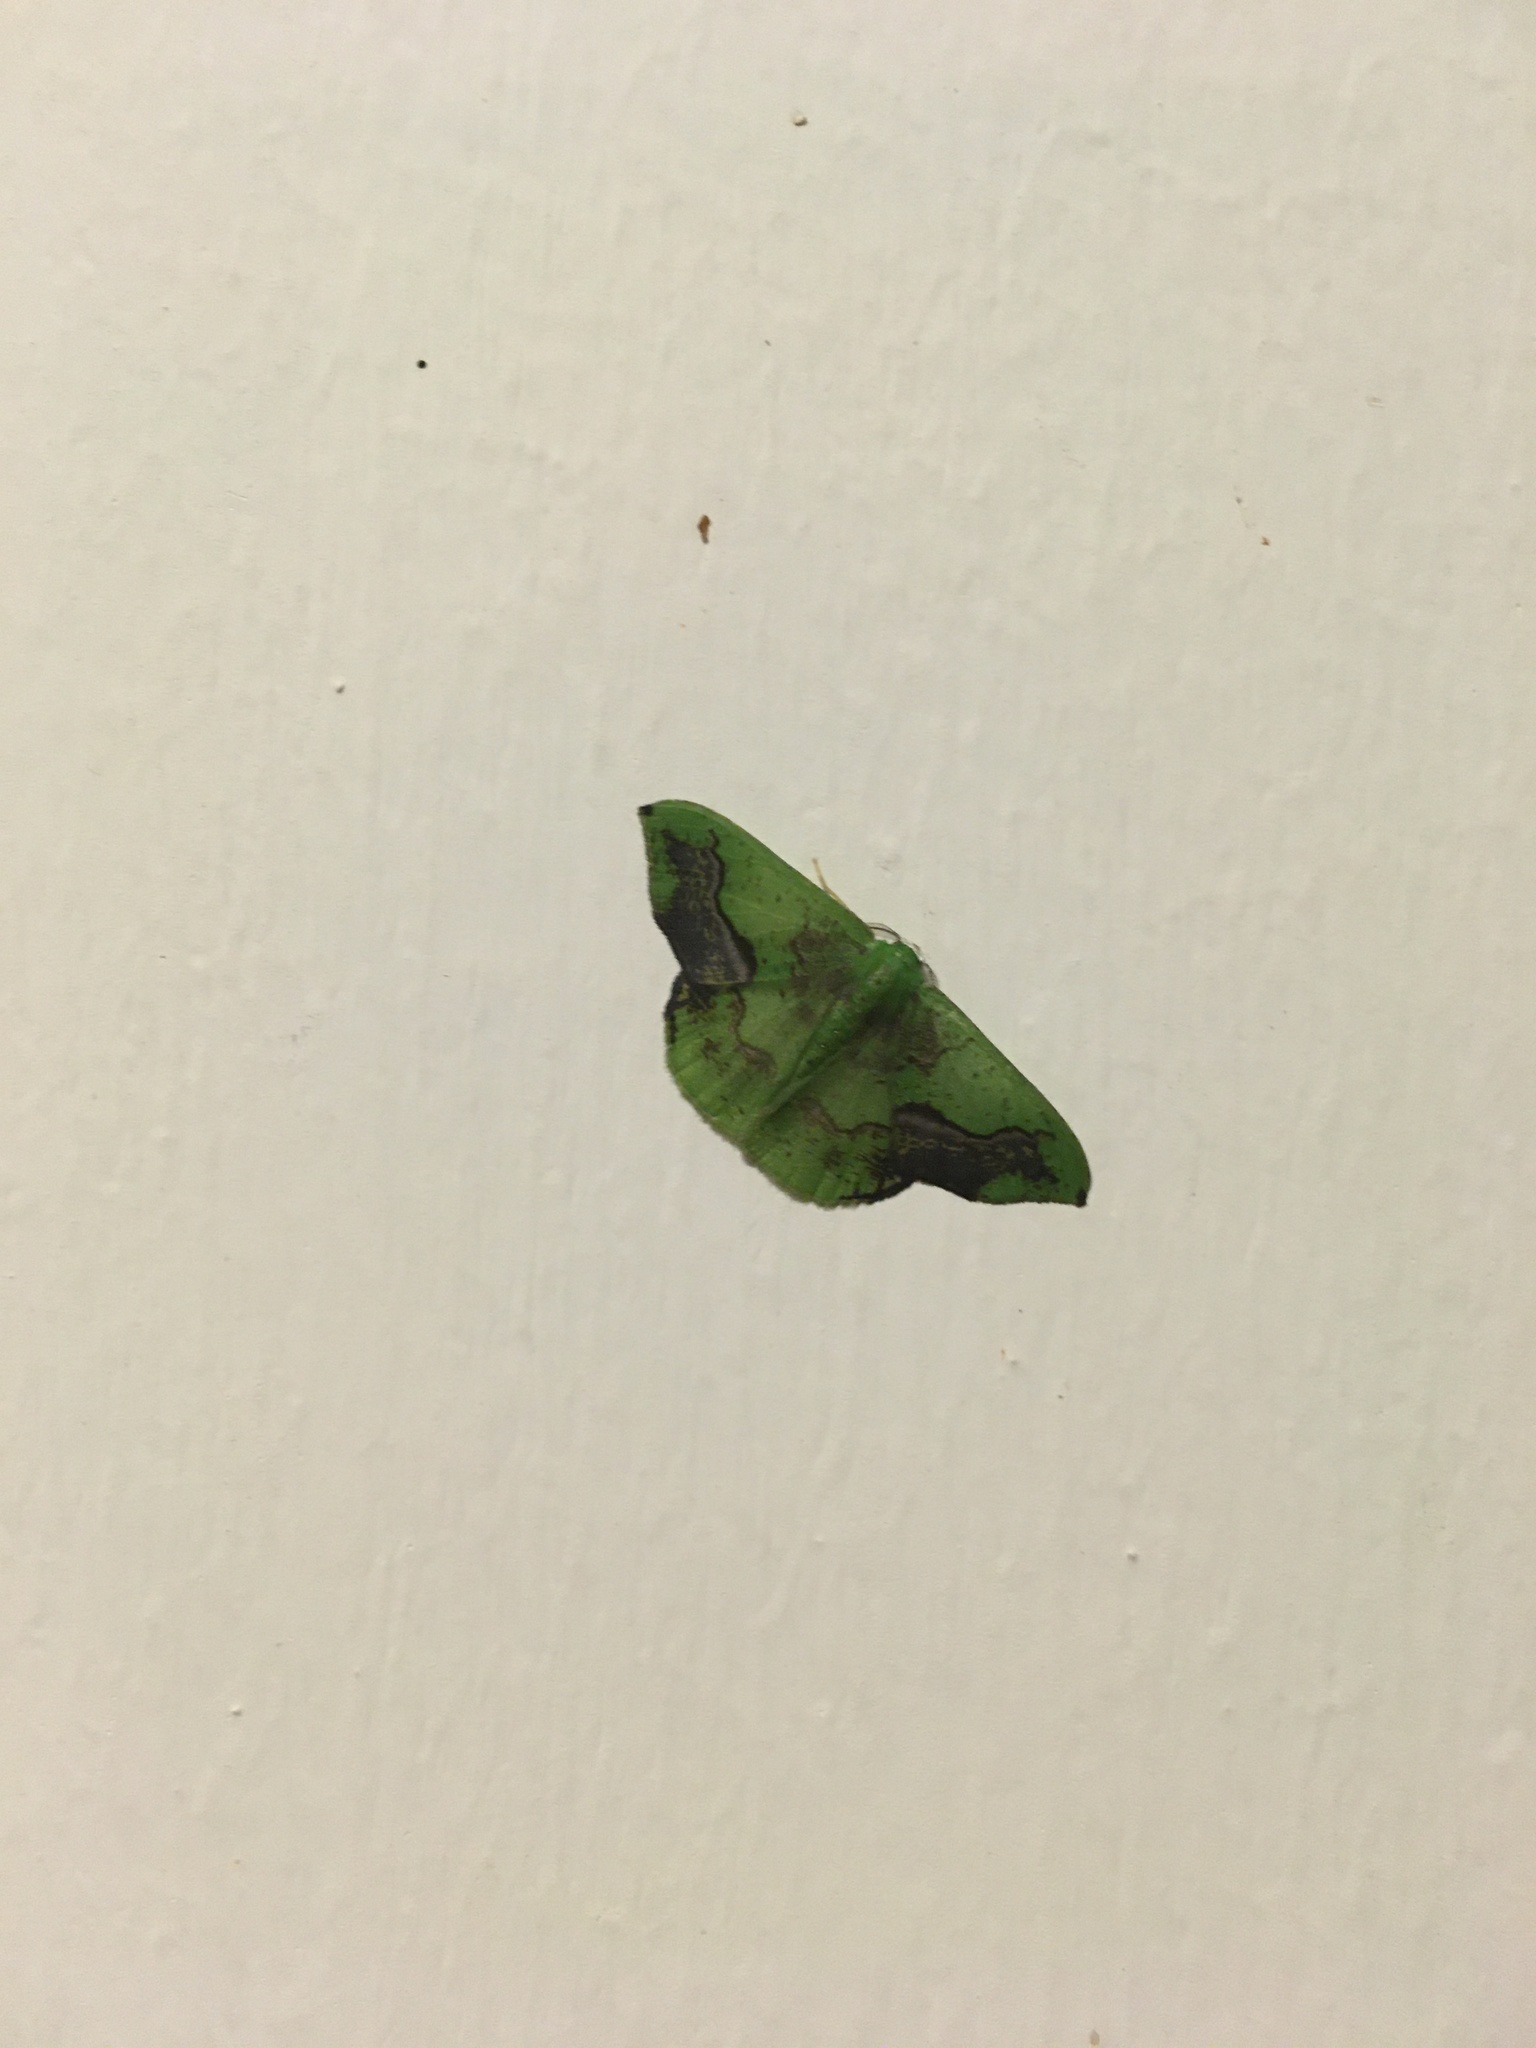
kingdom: Animalia
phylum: Arthropoda
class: Insecta
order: Lepidoptera
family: Geometridae
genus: Phrudocentra
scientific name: Phrudocentra janeira
